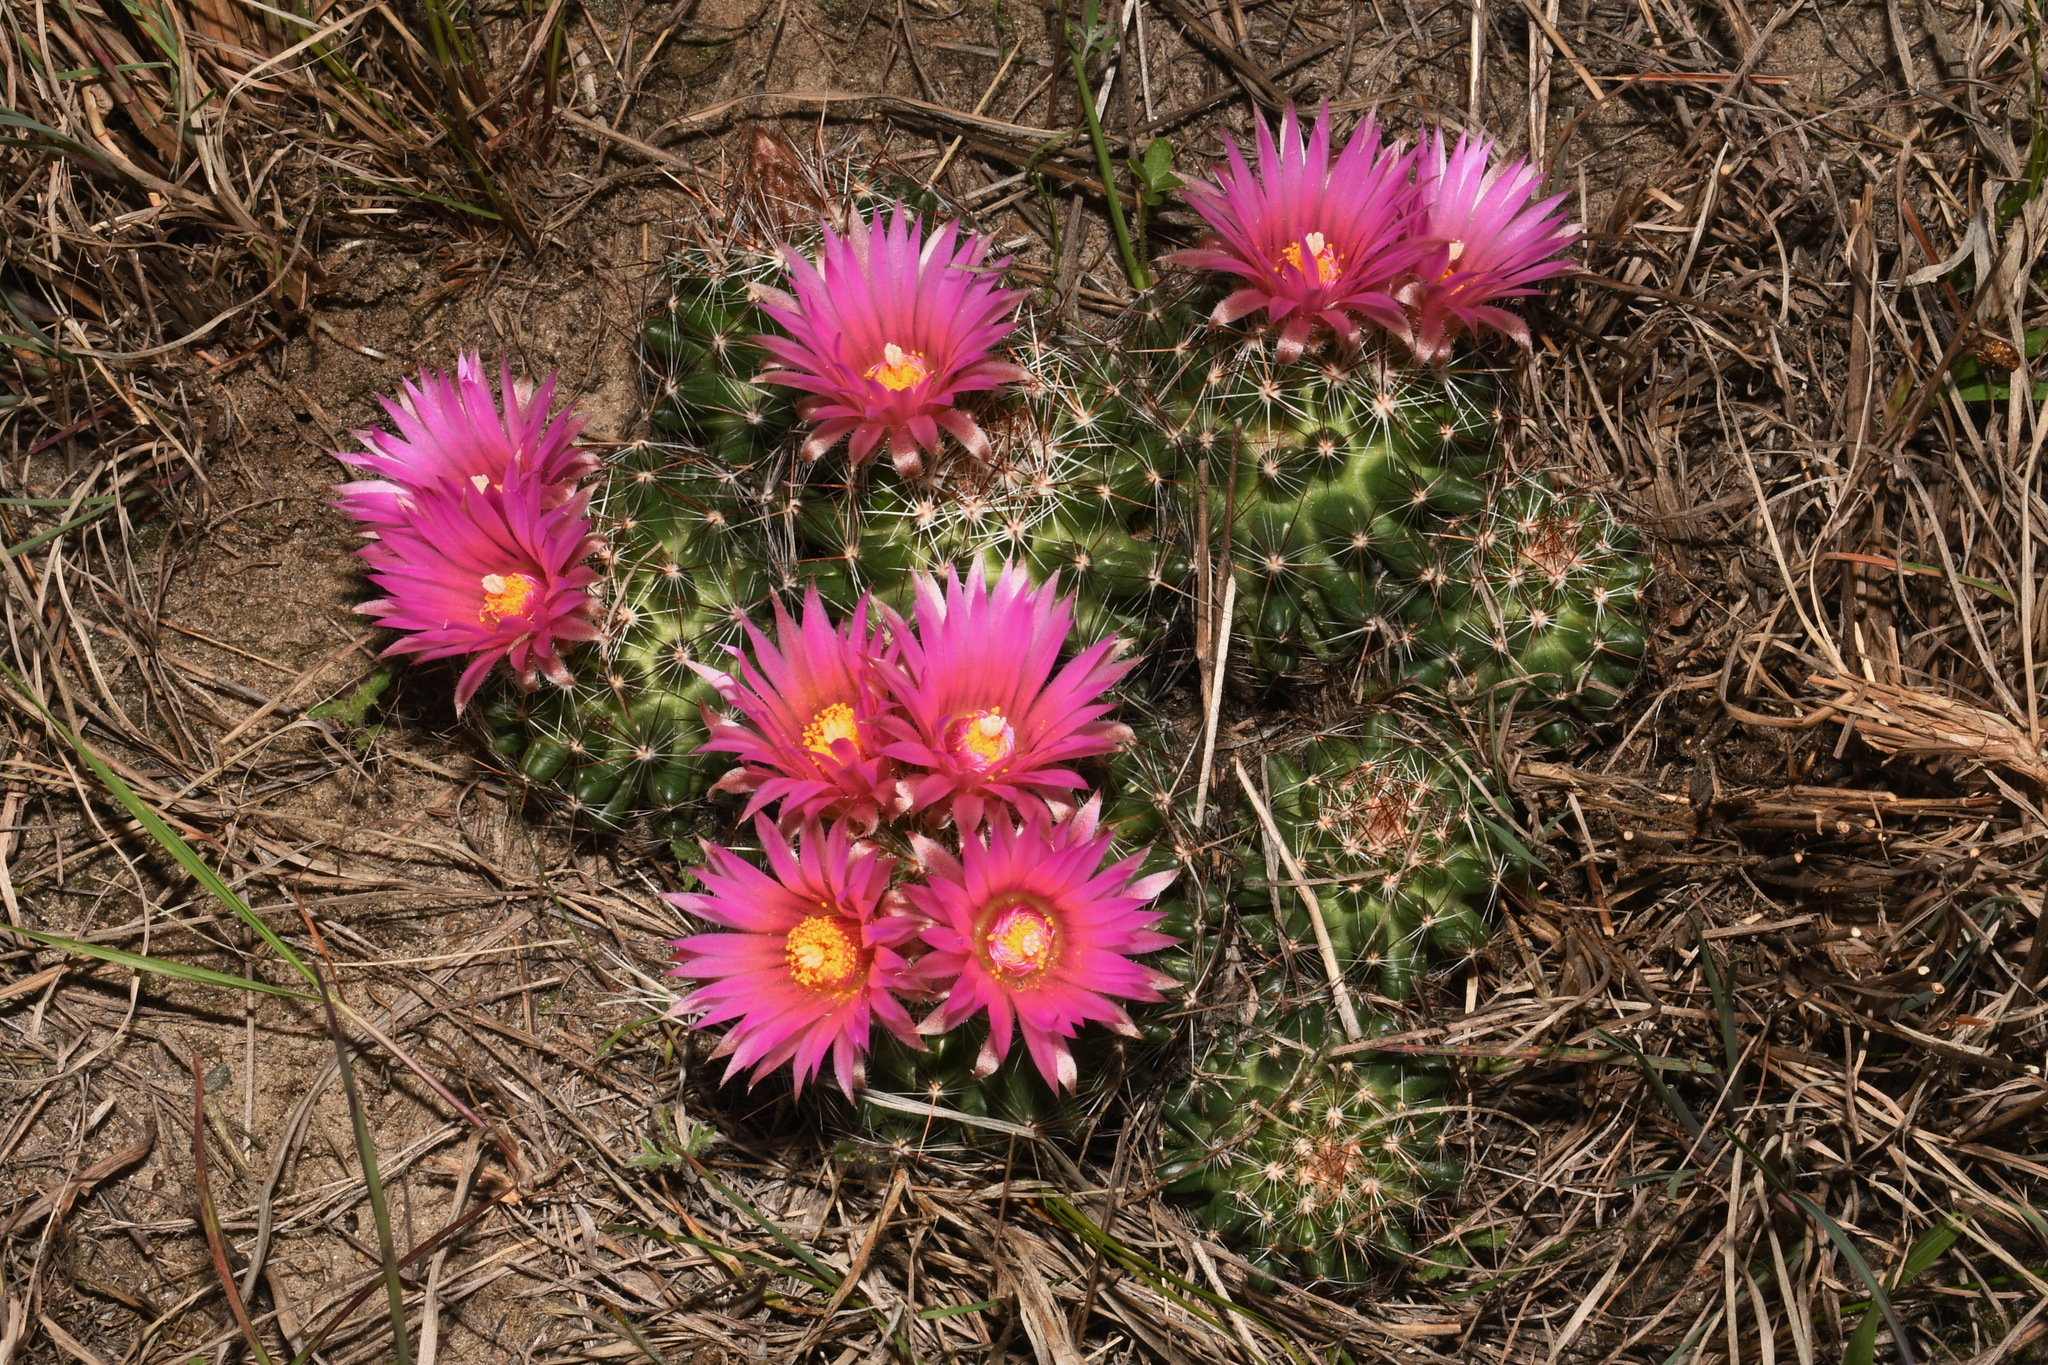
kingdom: Plantae
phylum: Tracheophyta
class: Magnoliopsida
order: Caryophyllales
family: Cactaceae
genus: Pelecyphora
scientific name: Pelecyphora vivipara
